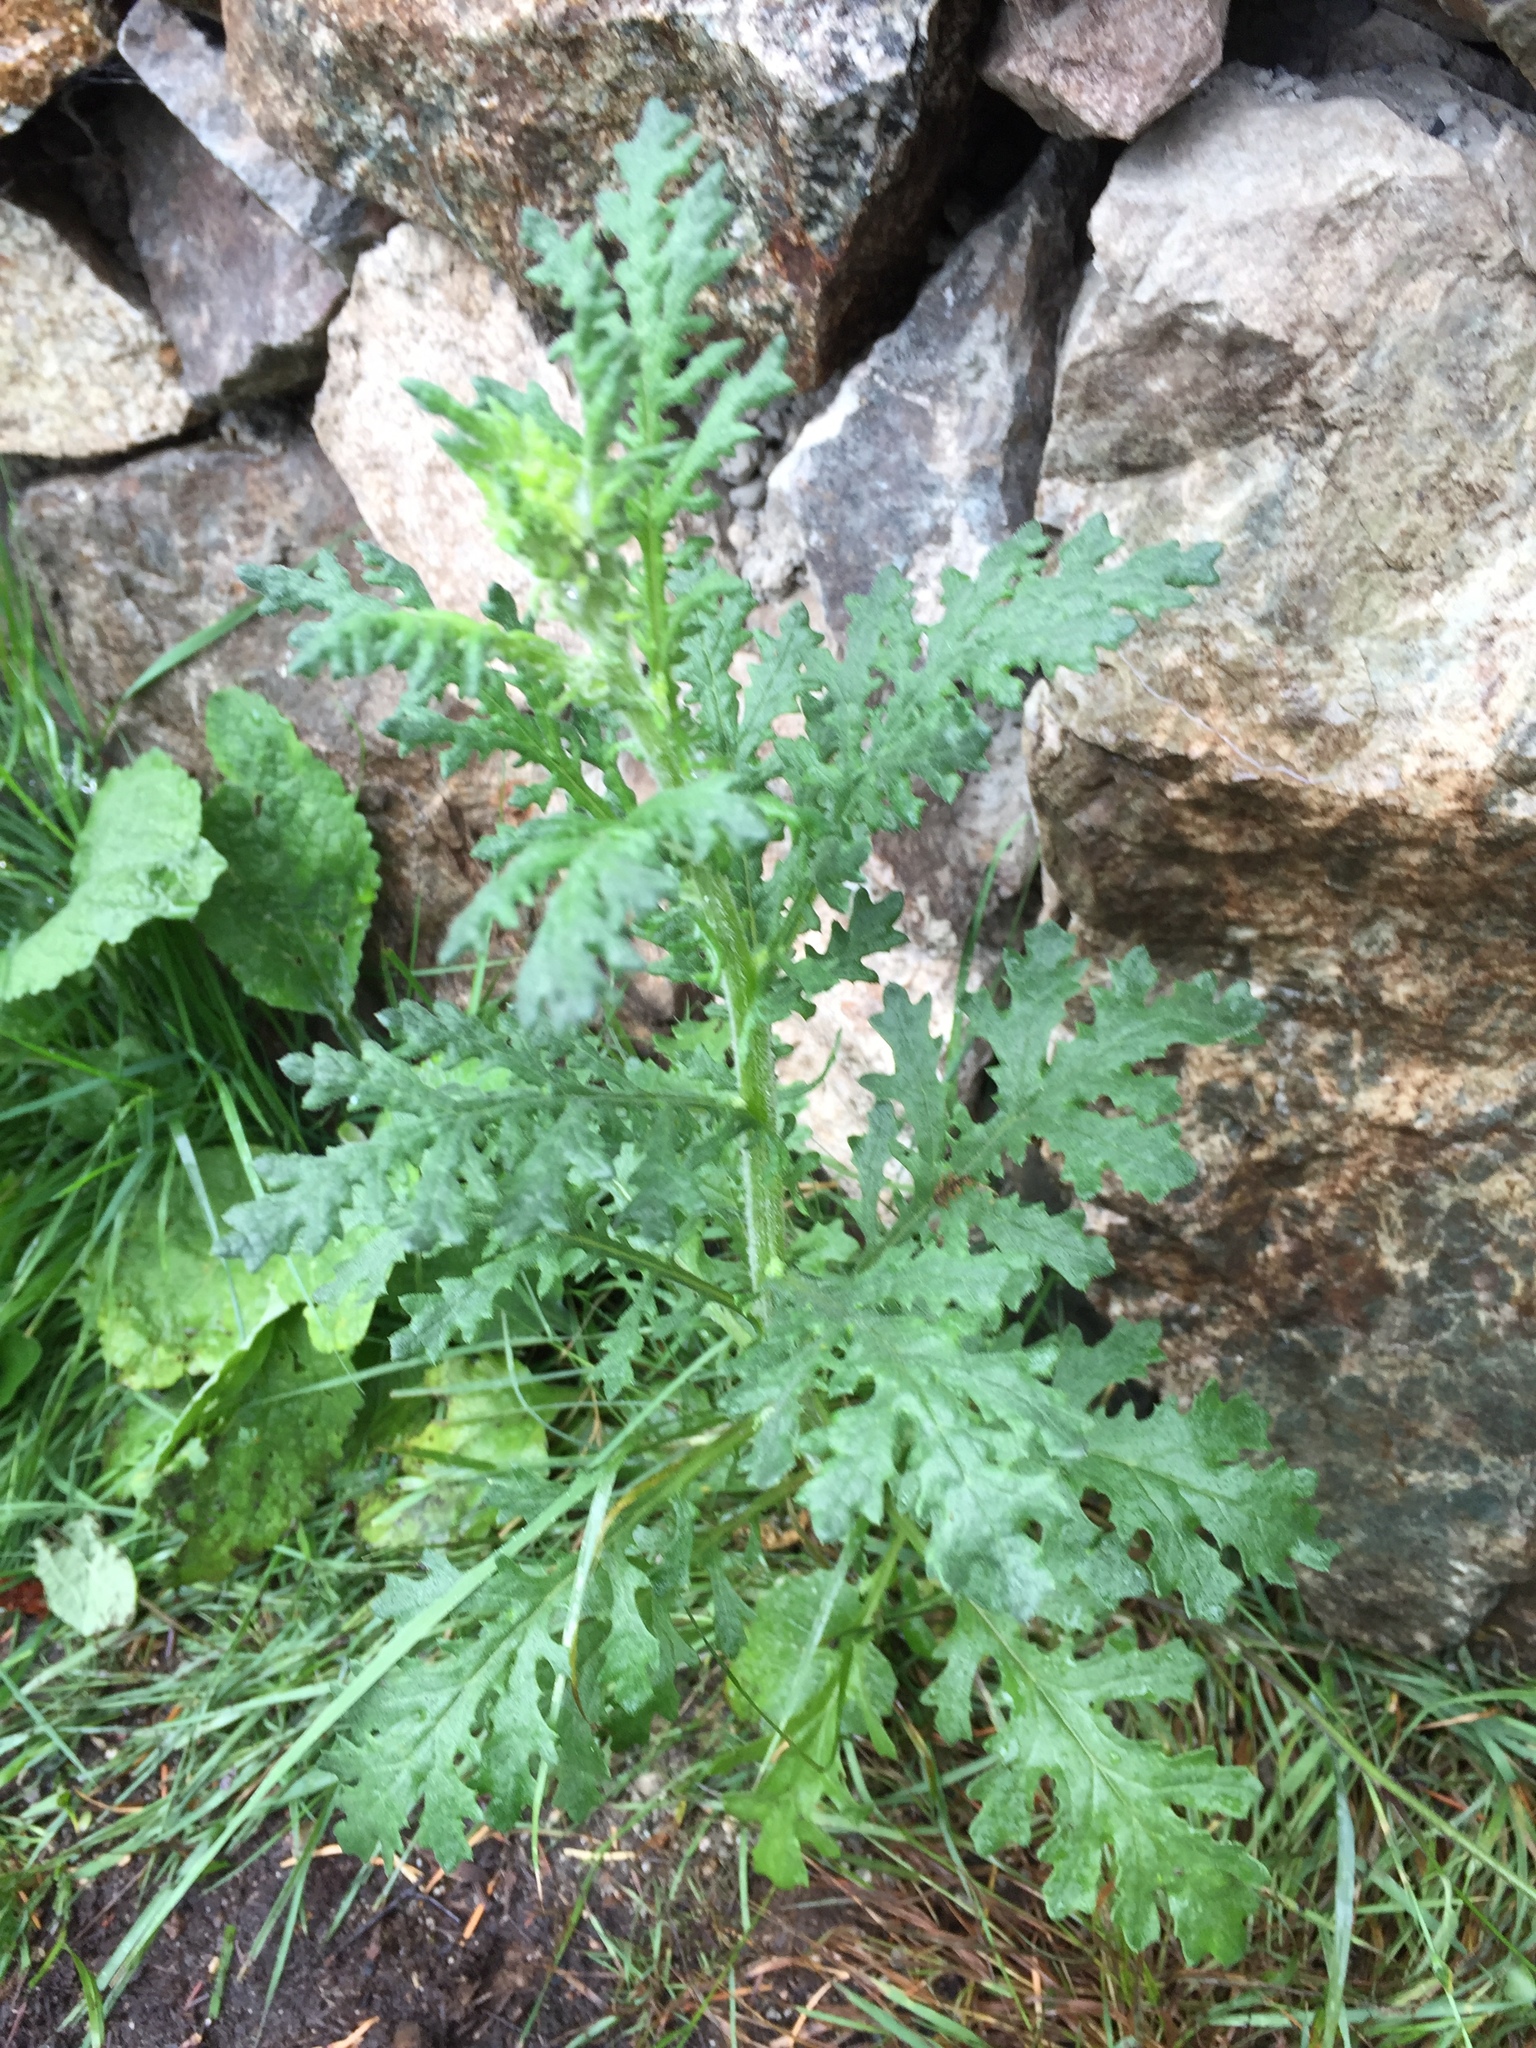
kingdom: Plantae
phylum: Tracheophyta
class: Magnoliopsida
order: Asterales
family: Asteraceae
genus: Jacobaea
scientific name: Jacobaea vulgaris
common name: Stinking willie
